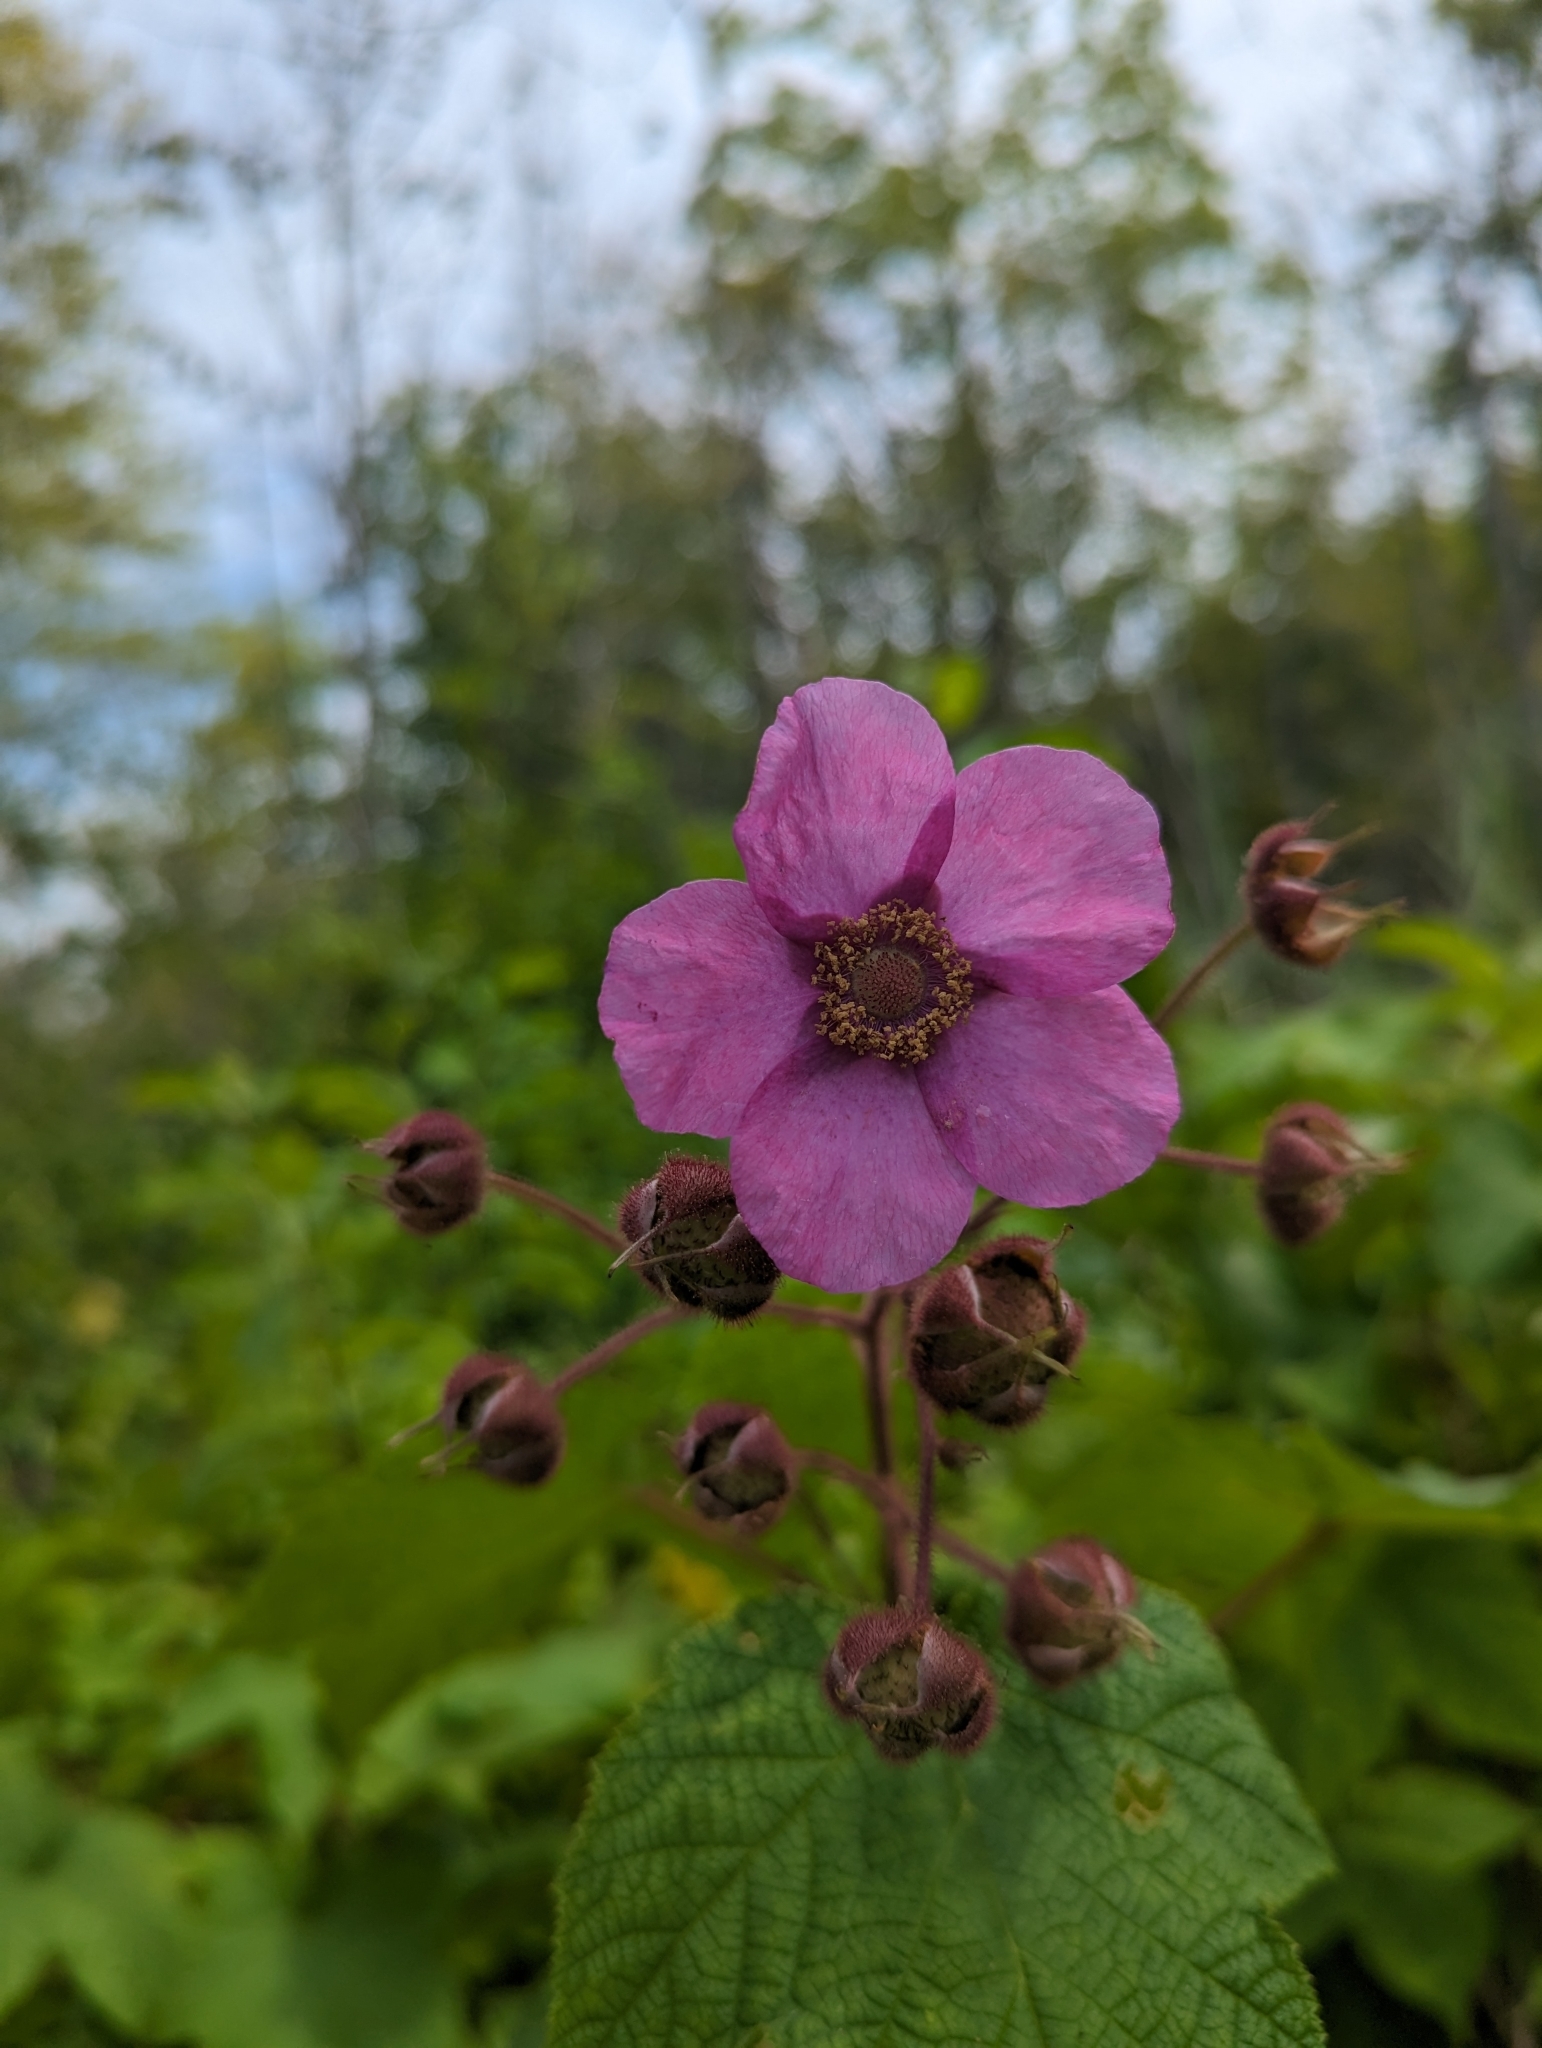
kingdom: Plantae
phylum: Tracheophyta
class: Magnoliopsida
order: Rosales
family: Rosaceae
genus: Rubus
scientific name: Rubus odoratus
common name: Purple-flowered raspberry
